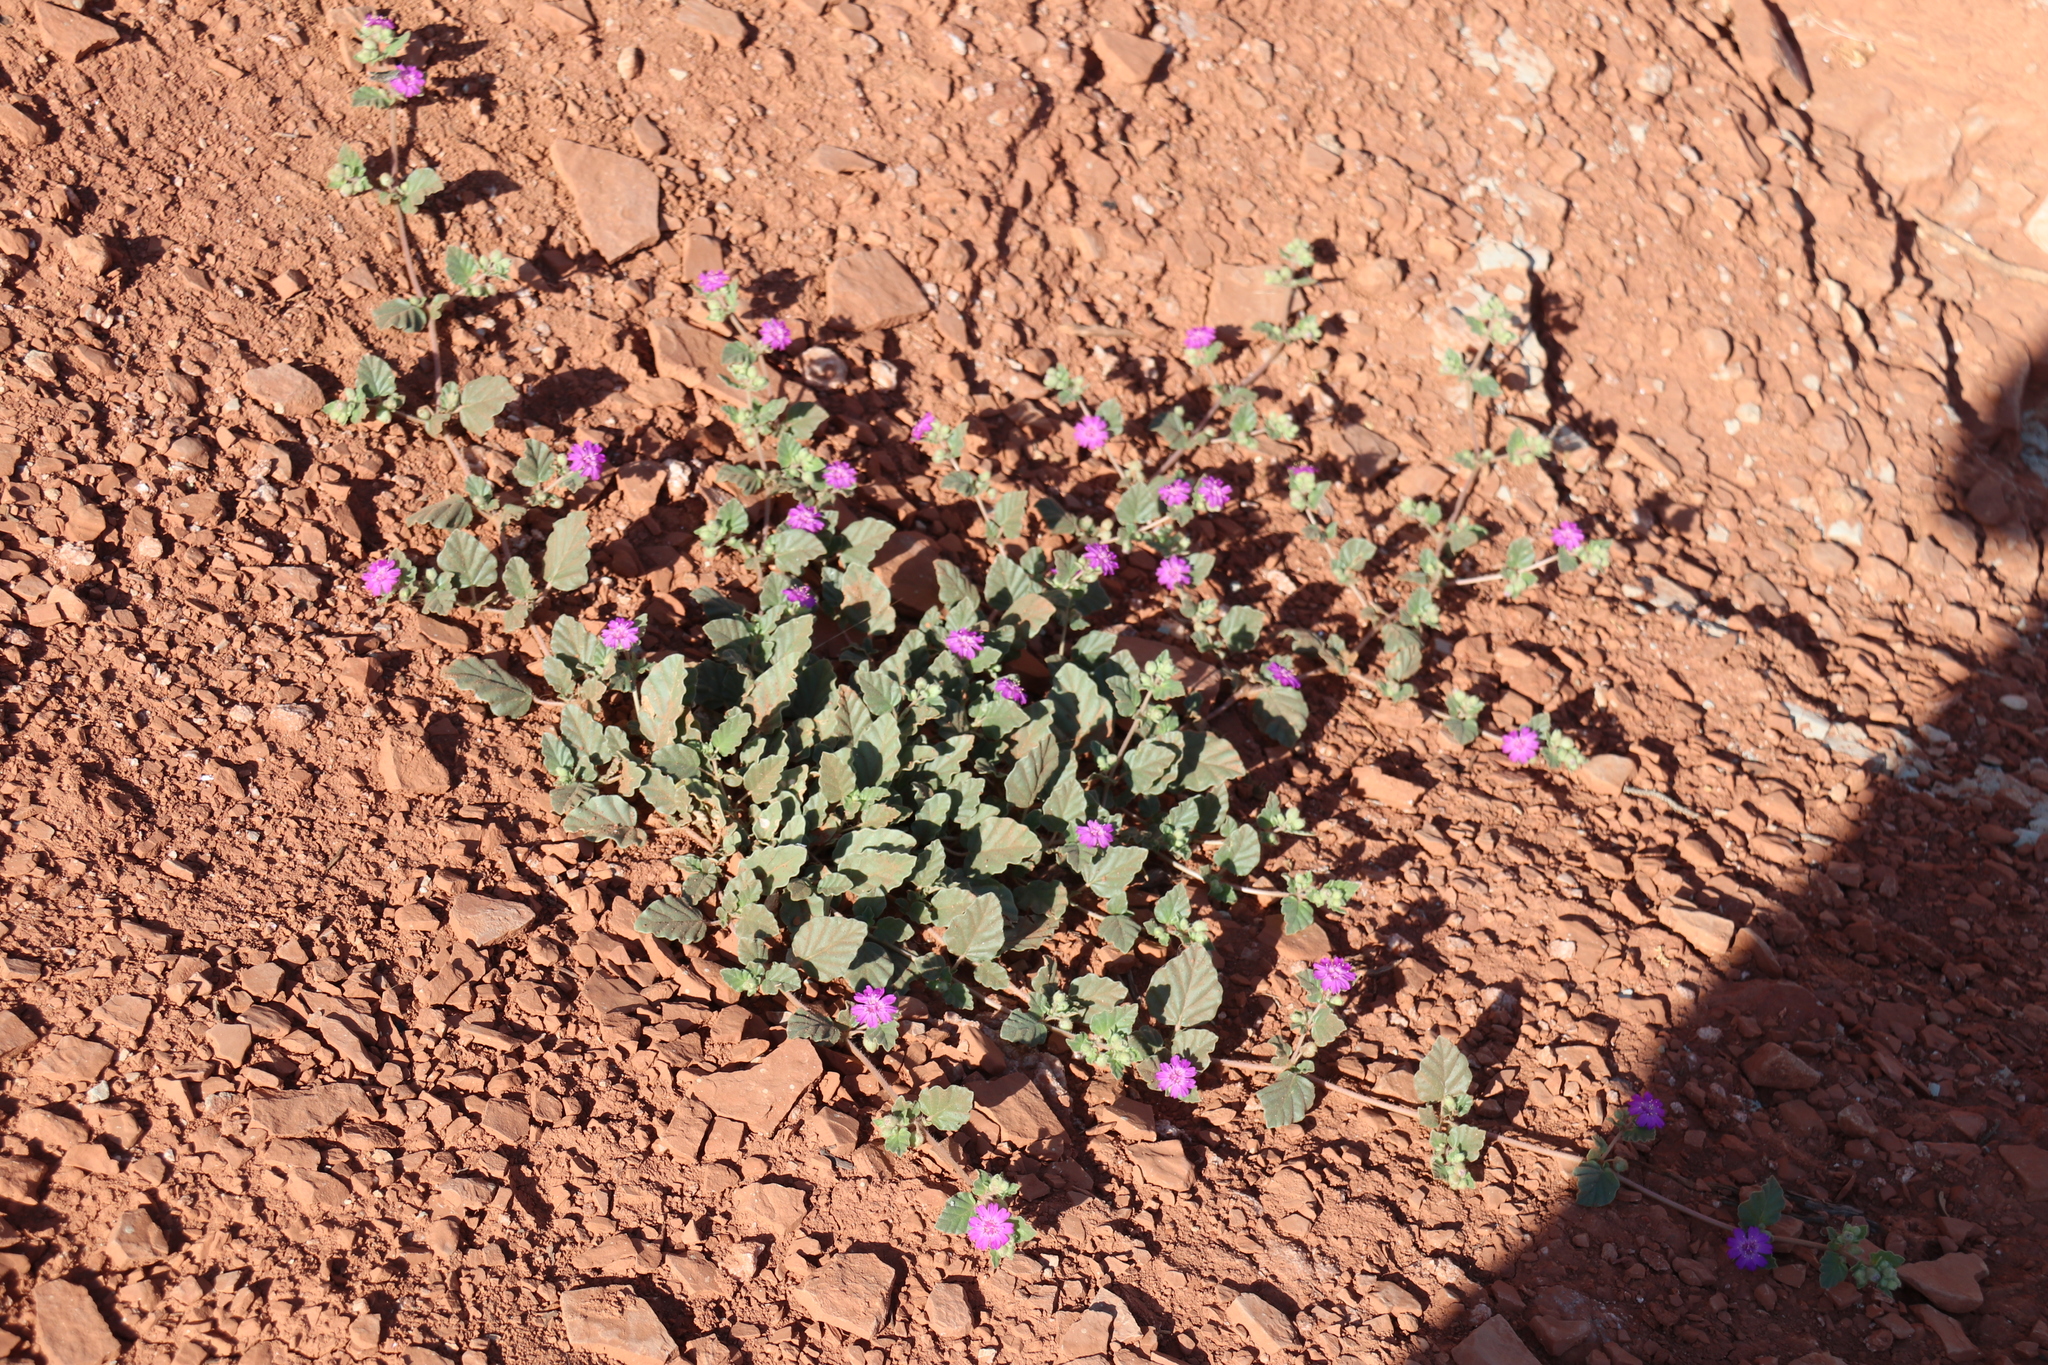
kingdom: Plantae
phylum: Tracheophyta
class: Magnoliopsida
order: Caryophyllales
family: Nyctaginaceae
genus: Allionia
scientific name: Allionia incarnata
